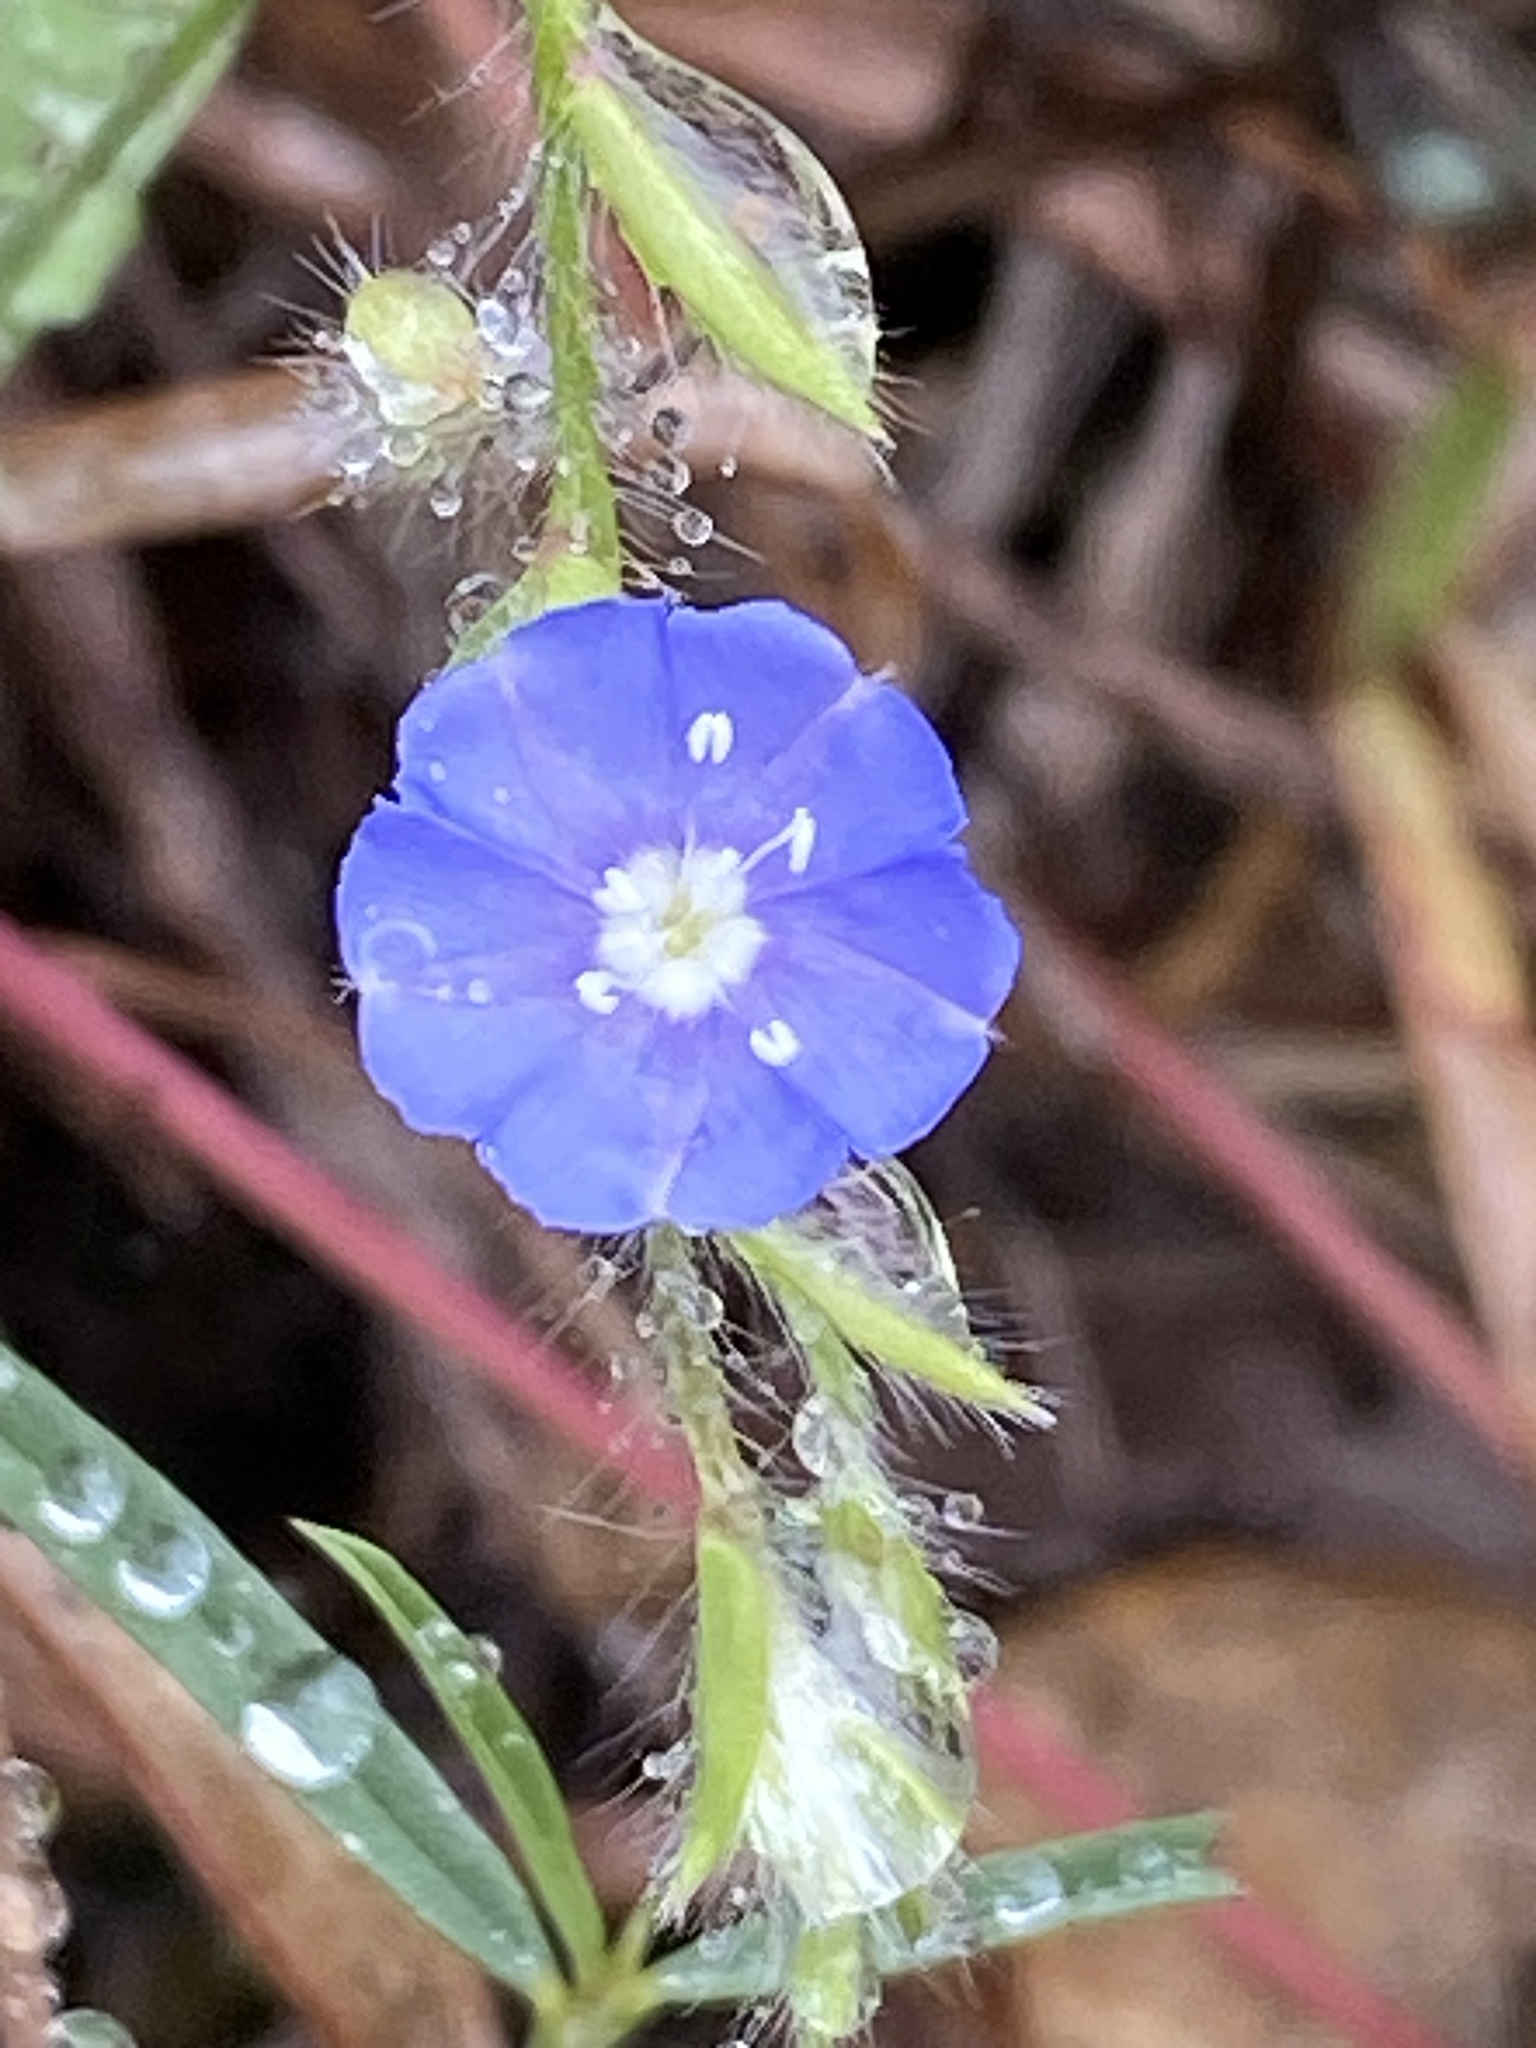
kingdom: Plantae
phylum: Tracheophyta
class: Magnoliopsida
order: Solanales
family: Convolvulaceae
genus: Evolvulus
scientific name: Evolvulus alsinoides
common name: Slender dwarf morning-glory
